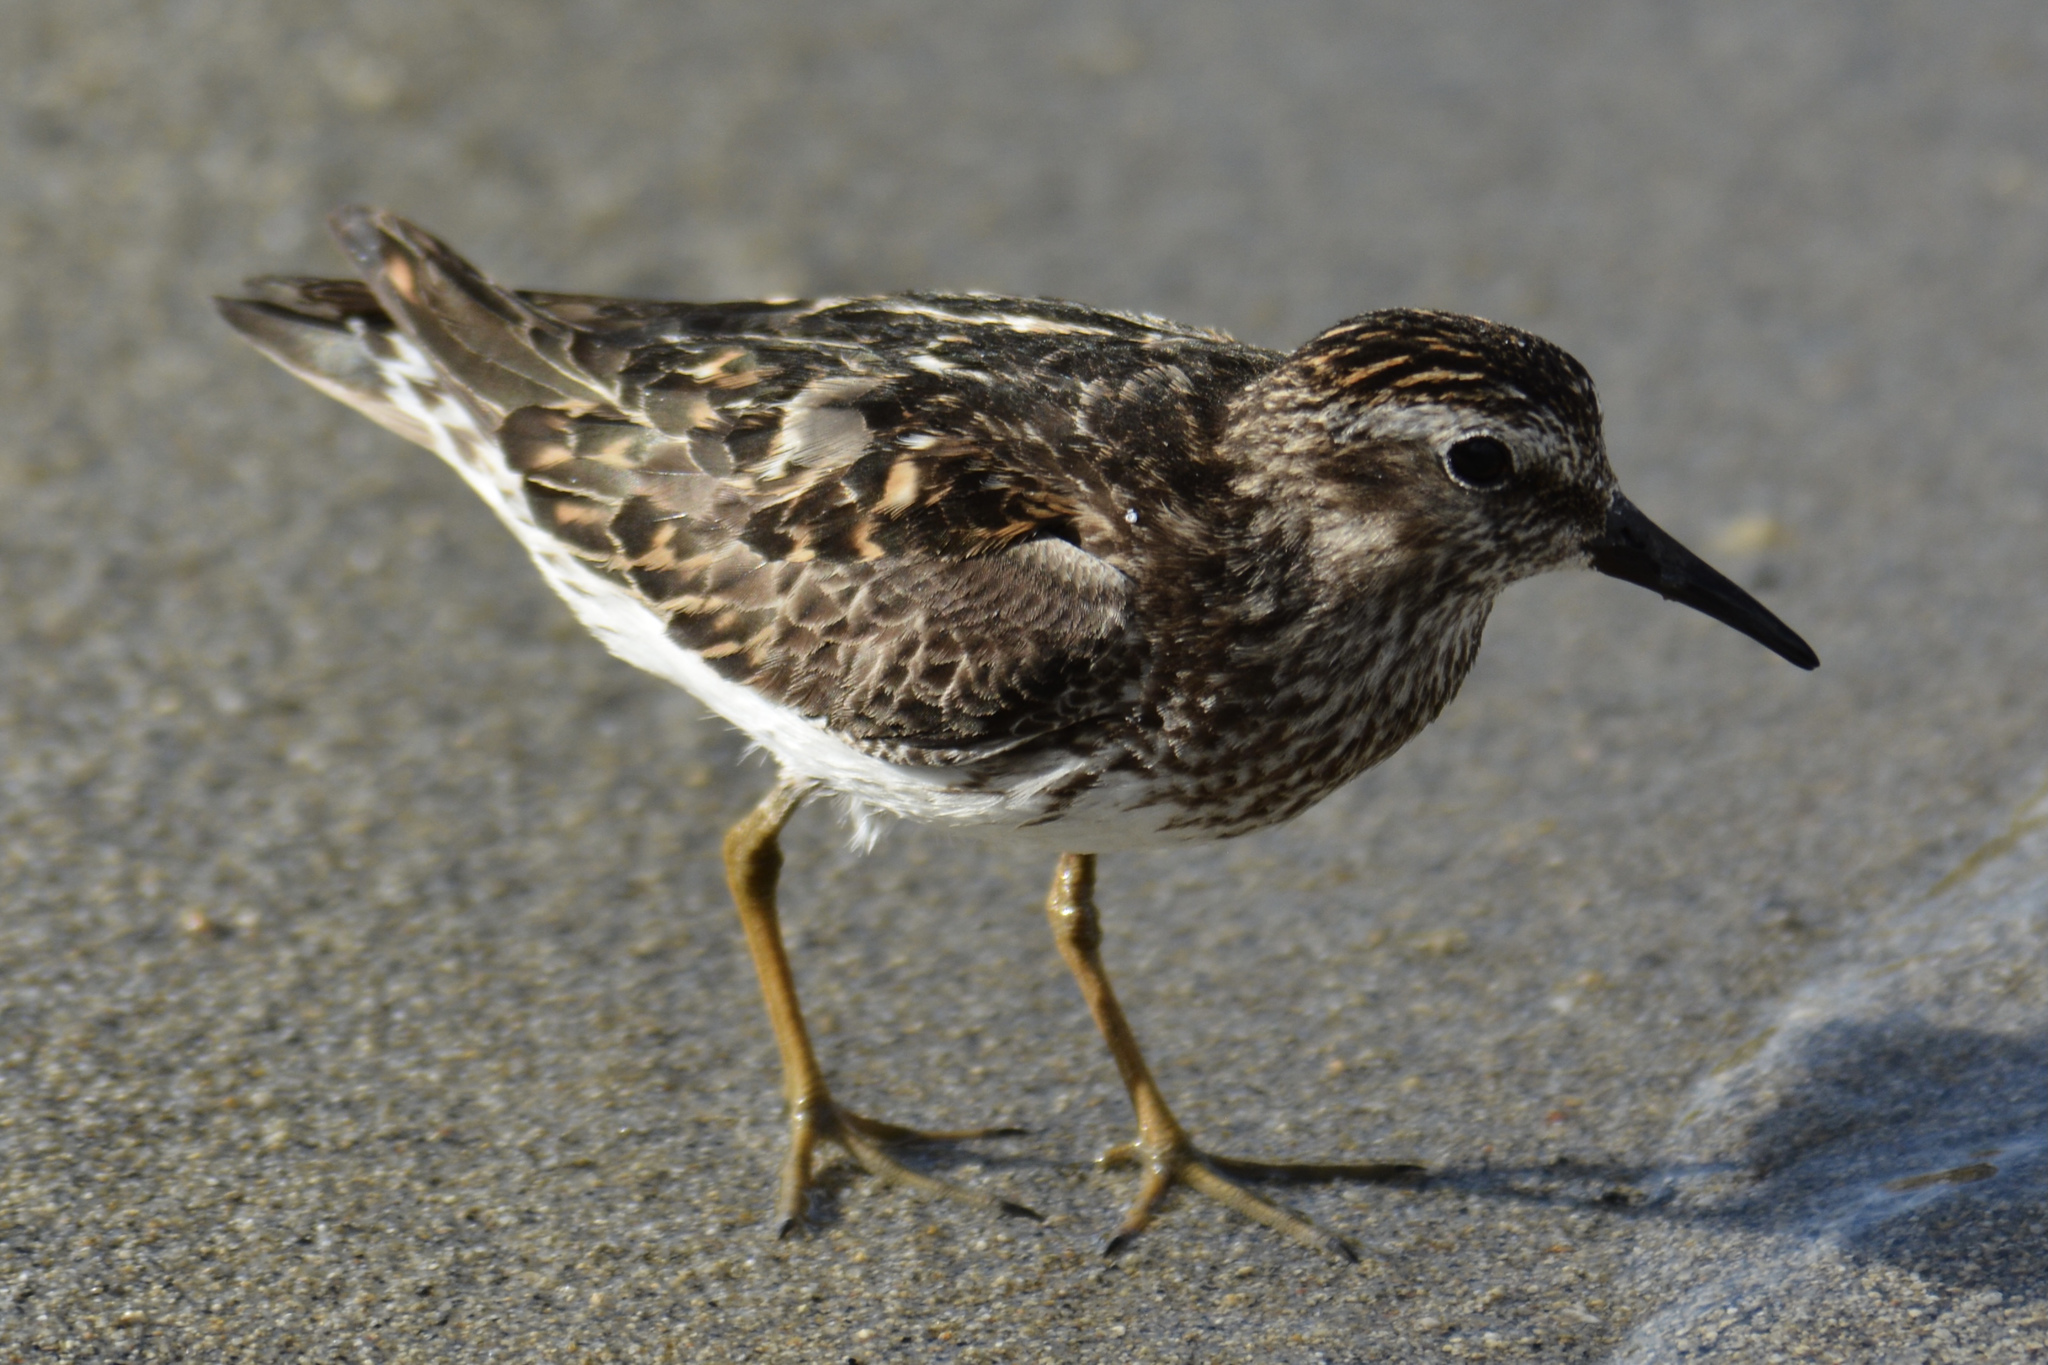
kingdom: Animalia
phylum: Chordata
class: Aves
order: Charadriiformes
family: Scolopacidae
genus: Calidris
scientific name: Calidris minutilla
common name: Least sandpiper
